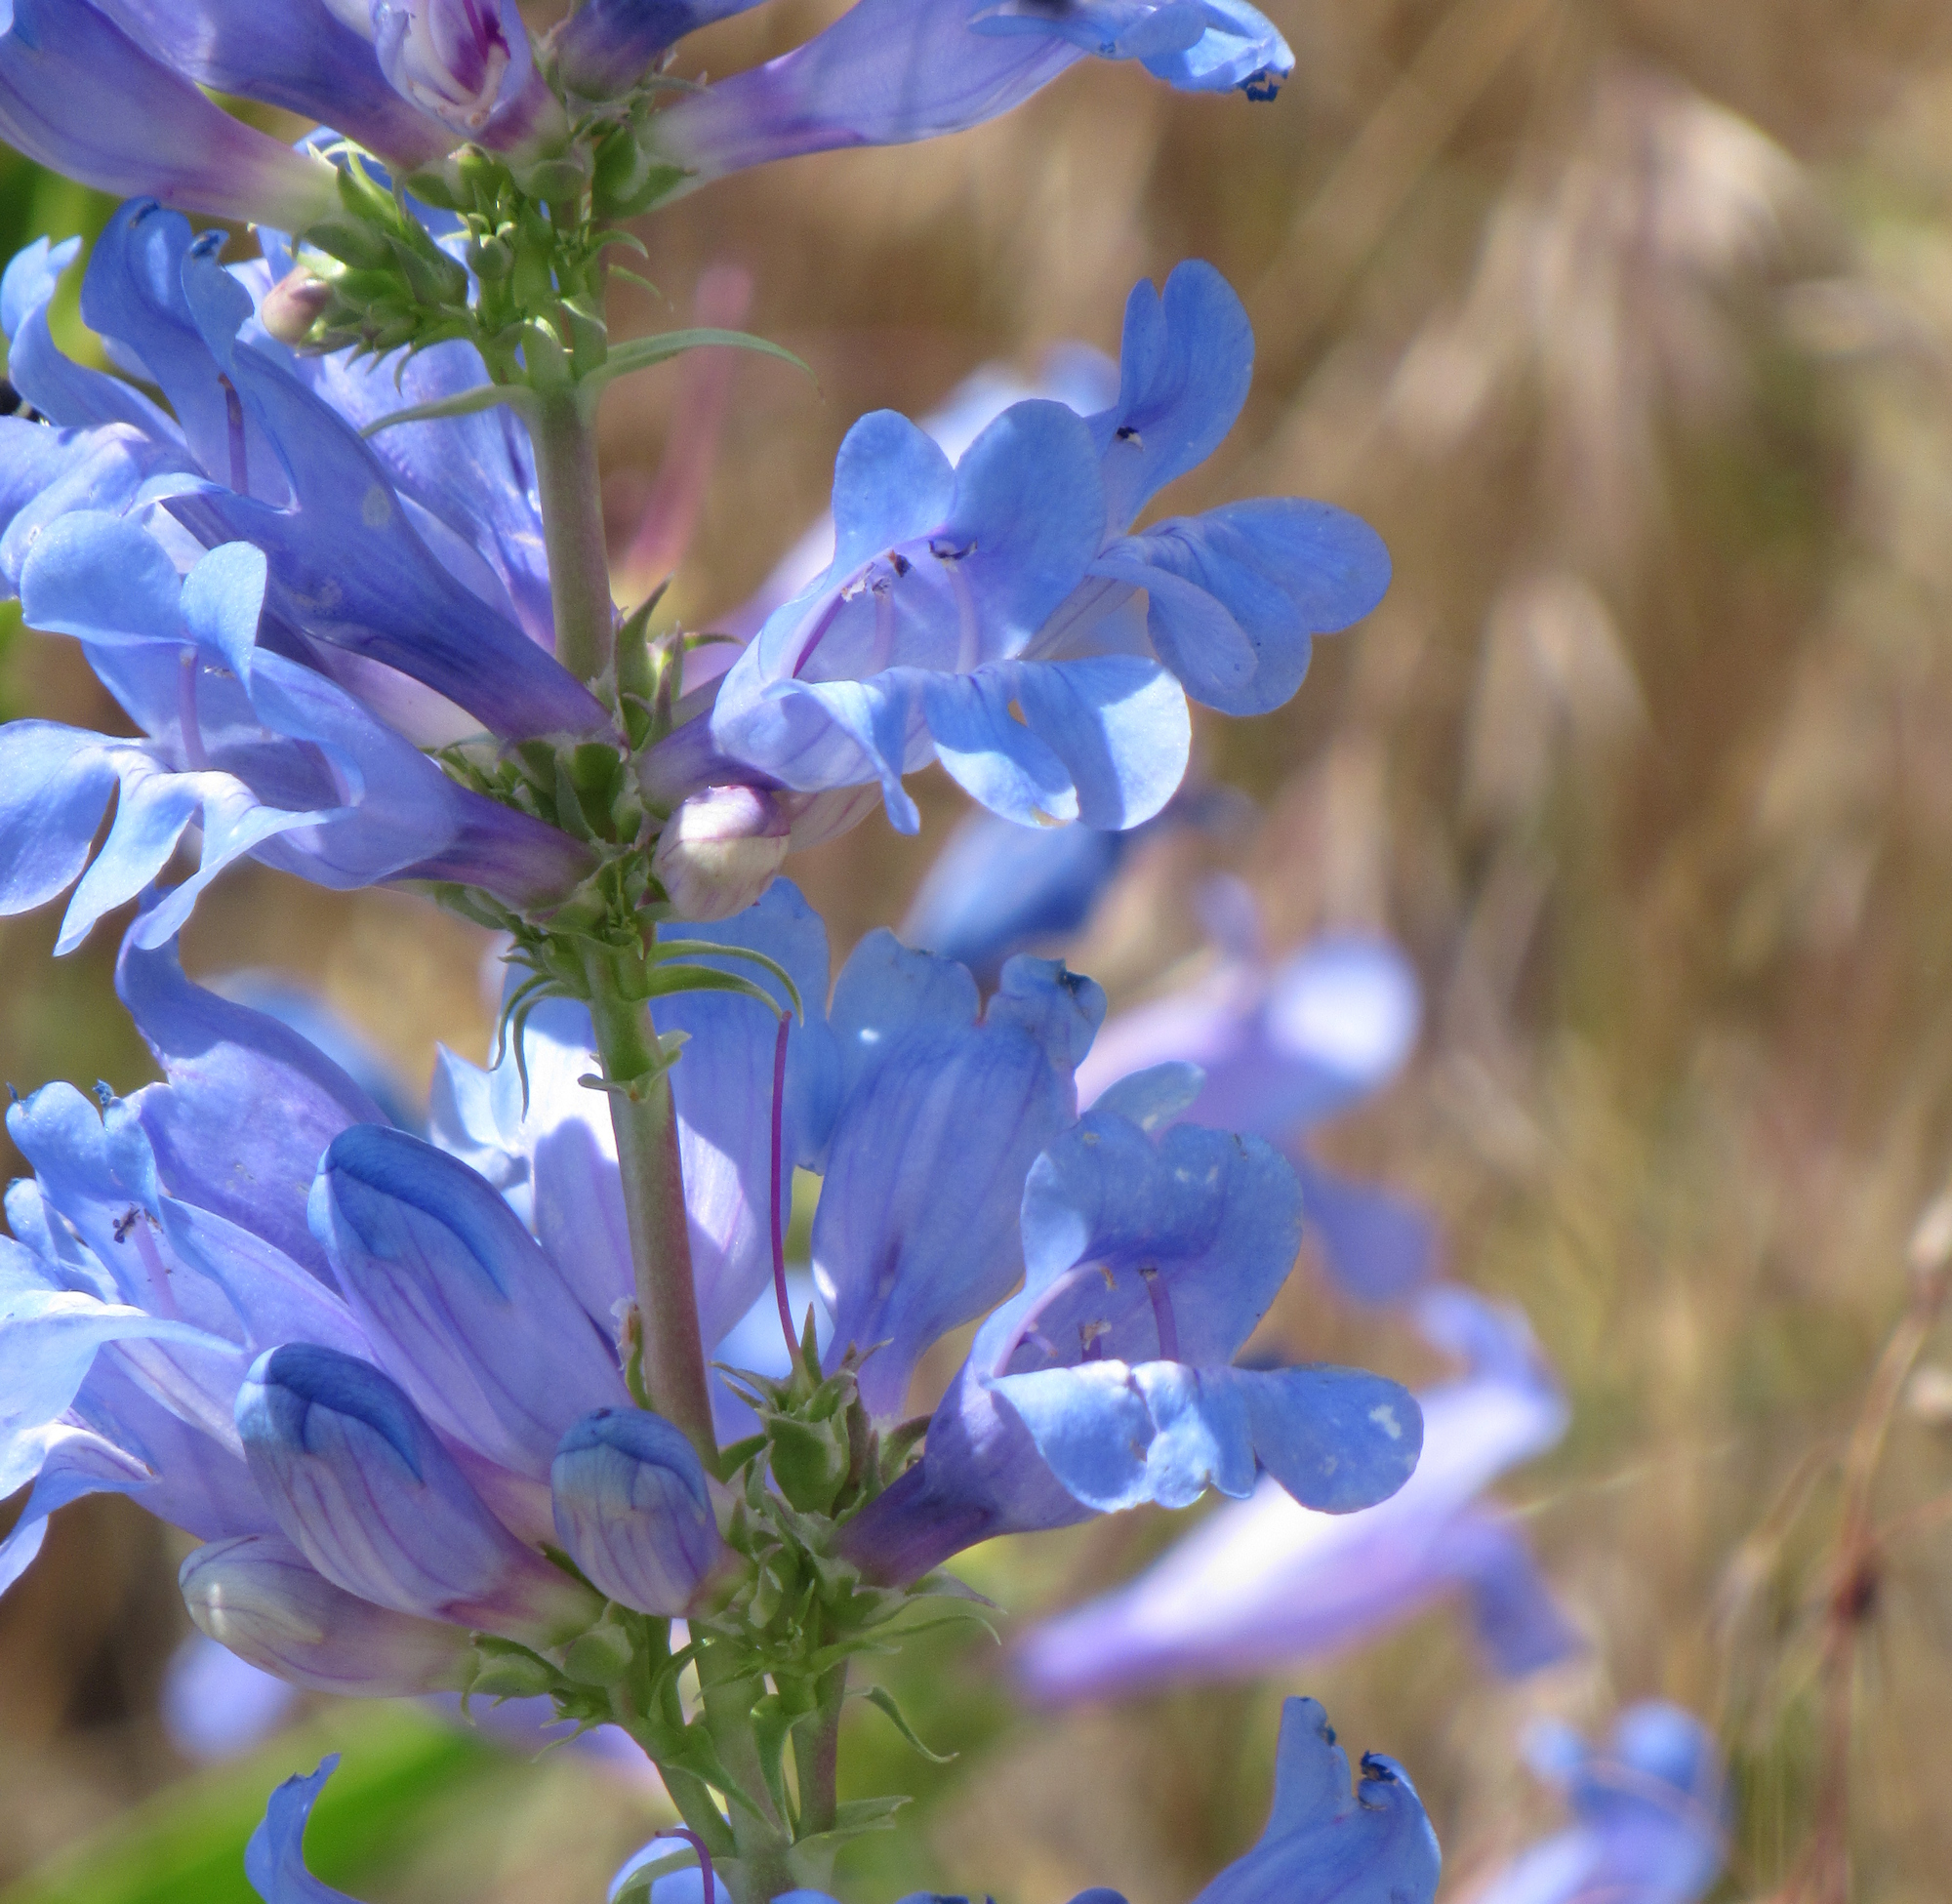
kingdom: Plantae
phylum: Tracheophyta
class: Magnoliopsida
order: Lamiales
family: Plantaginaceae
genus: Penstemon
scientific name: Penstemon payettensis
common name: Payette penstemon
